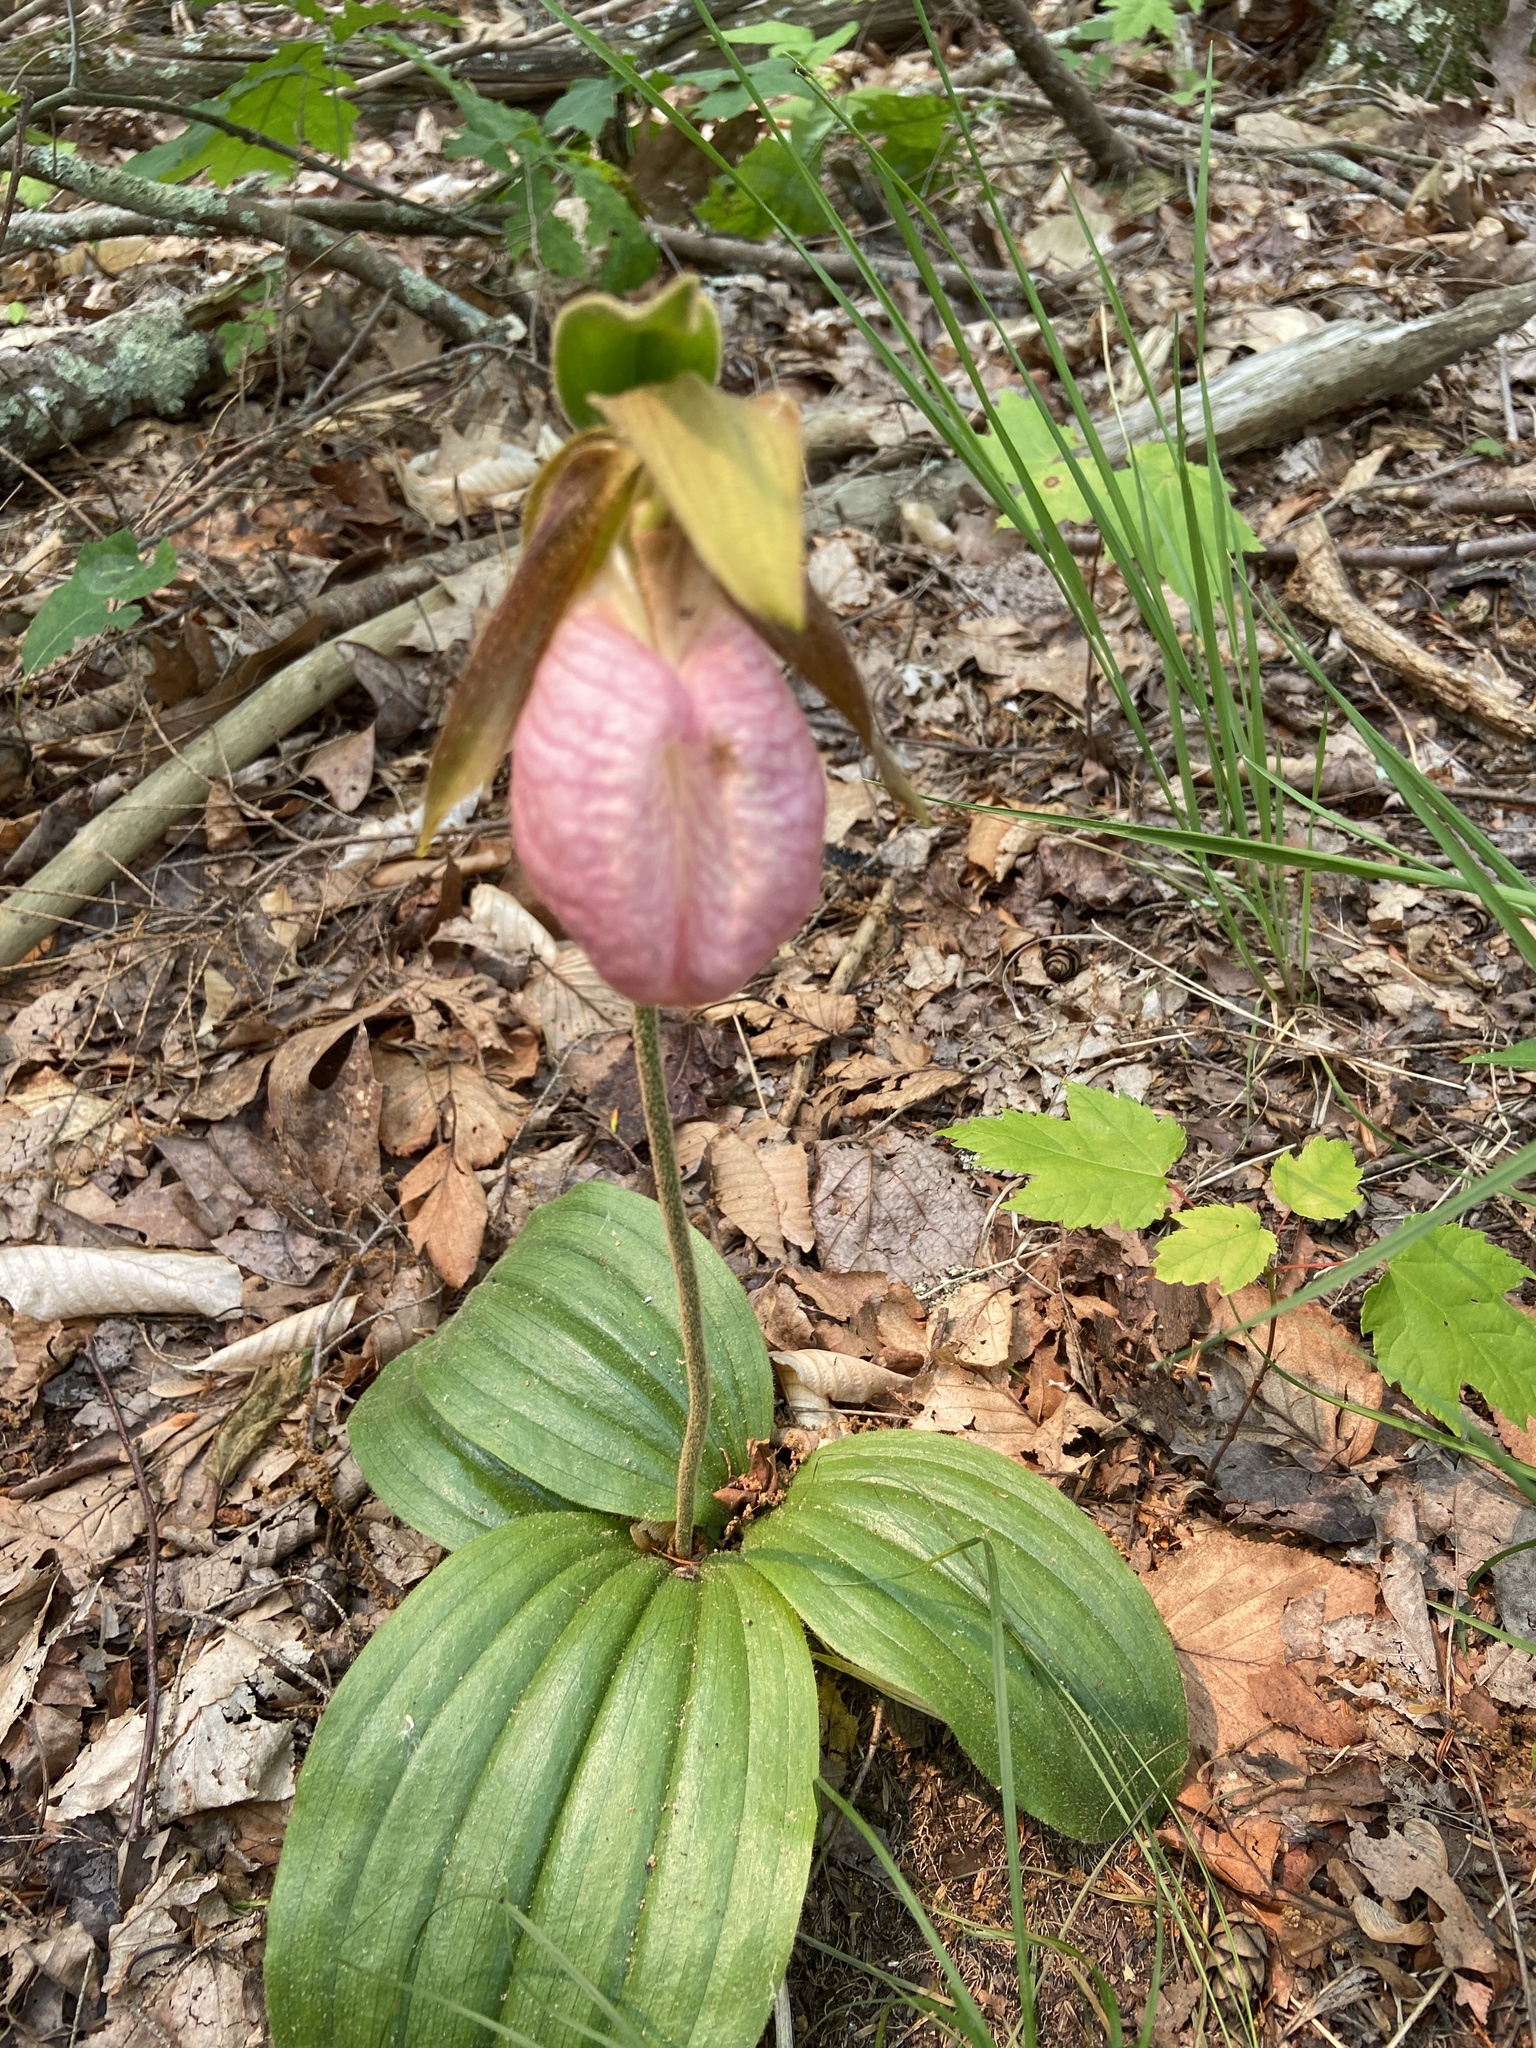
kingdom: Plantae
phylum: Tracheophyta
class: Liliopsida
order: Asparagales
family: Orchidaceae
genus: Cypripedium
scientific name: Cypripedium acaule
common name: Pink lady's-slipper
